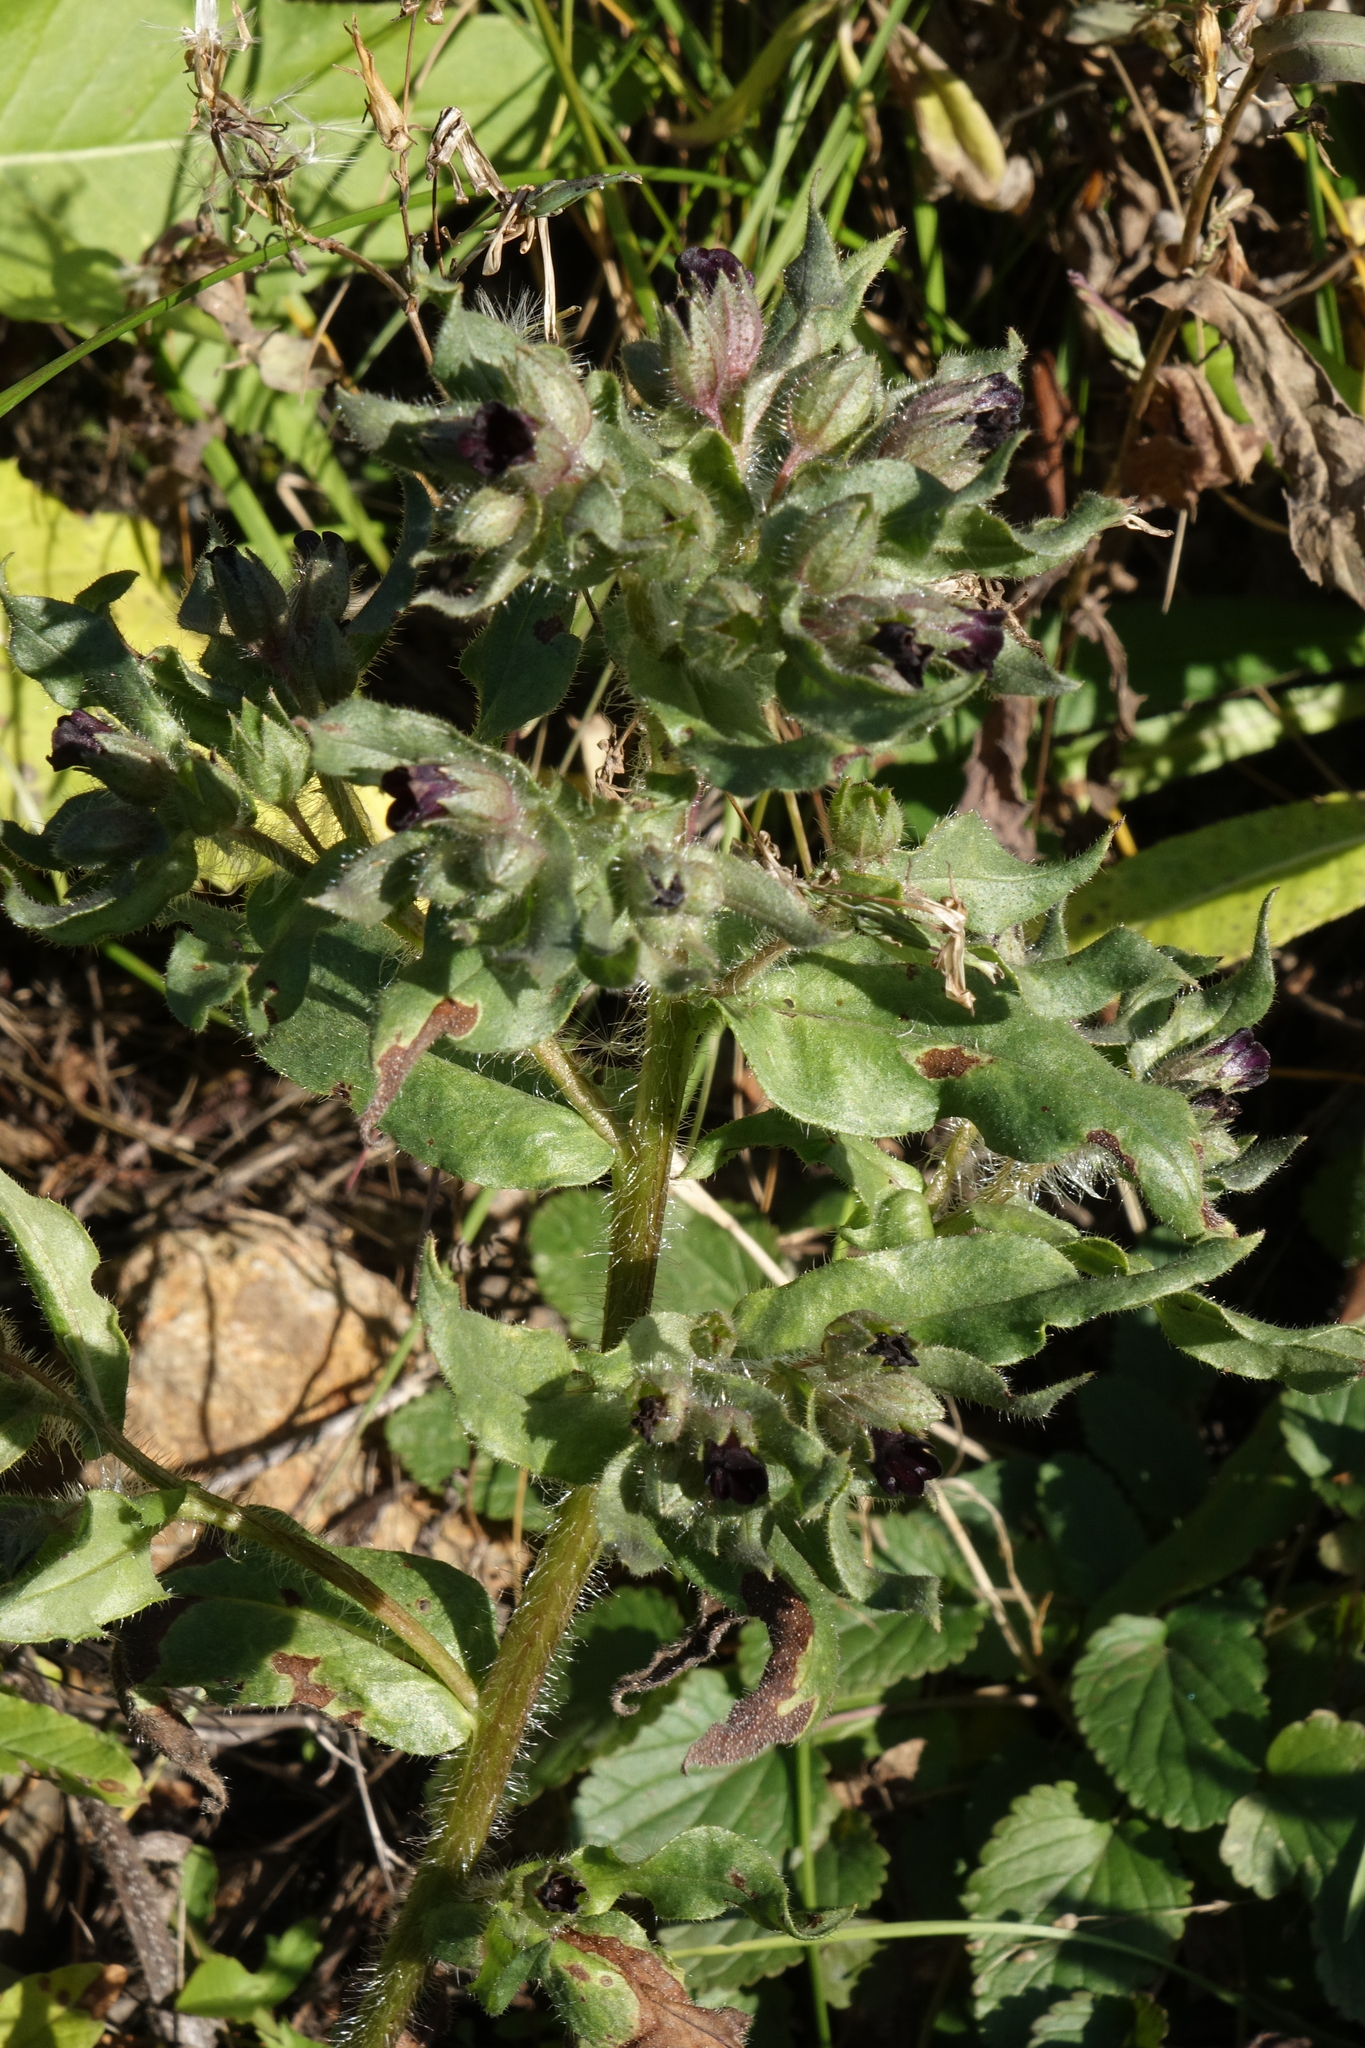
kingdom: Plantae
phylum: Tracheophyta
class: Magnoliopsida
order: Boraginales
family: Boraginaceae
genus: Nonea
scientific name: Nonea pulla
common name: Brown nonea
